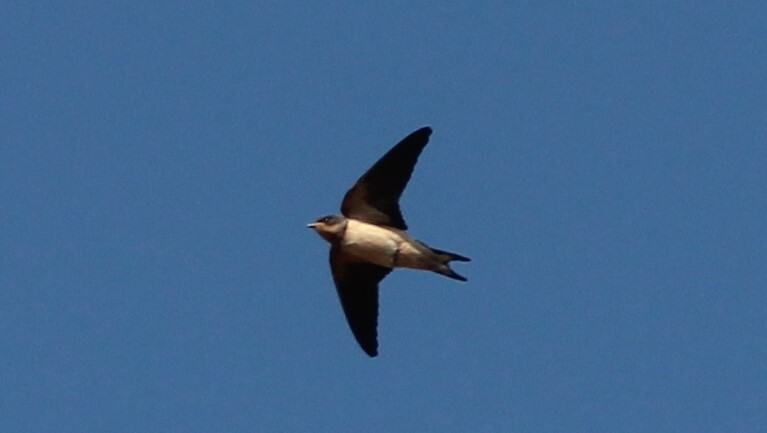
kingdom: Animalia
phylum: Chordata
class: Aves
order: Passeriformes
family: Hirundinidae
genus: Hirundo
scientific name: Hirundo rustica
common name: Barn swallow
